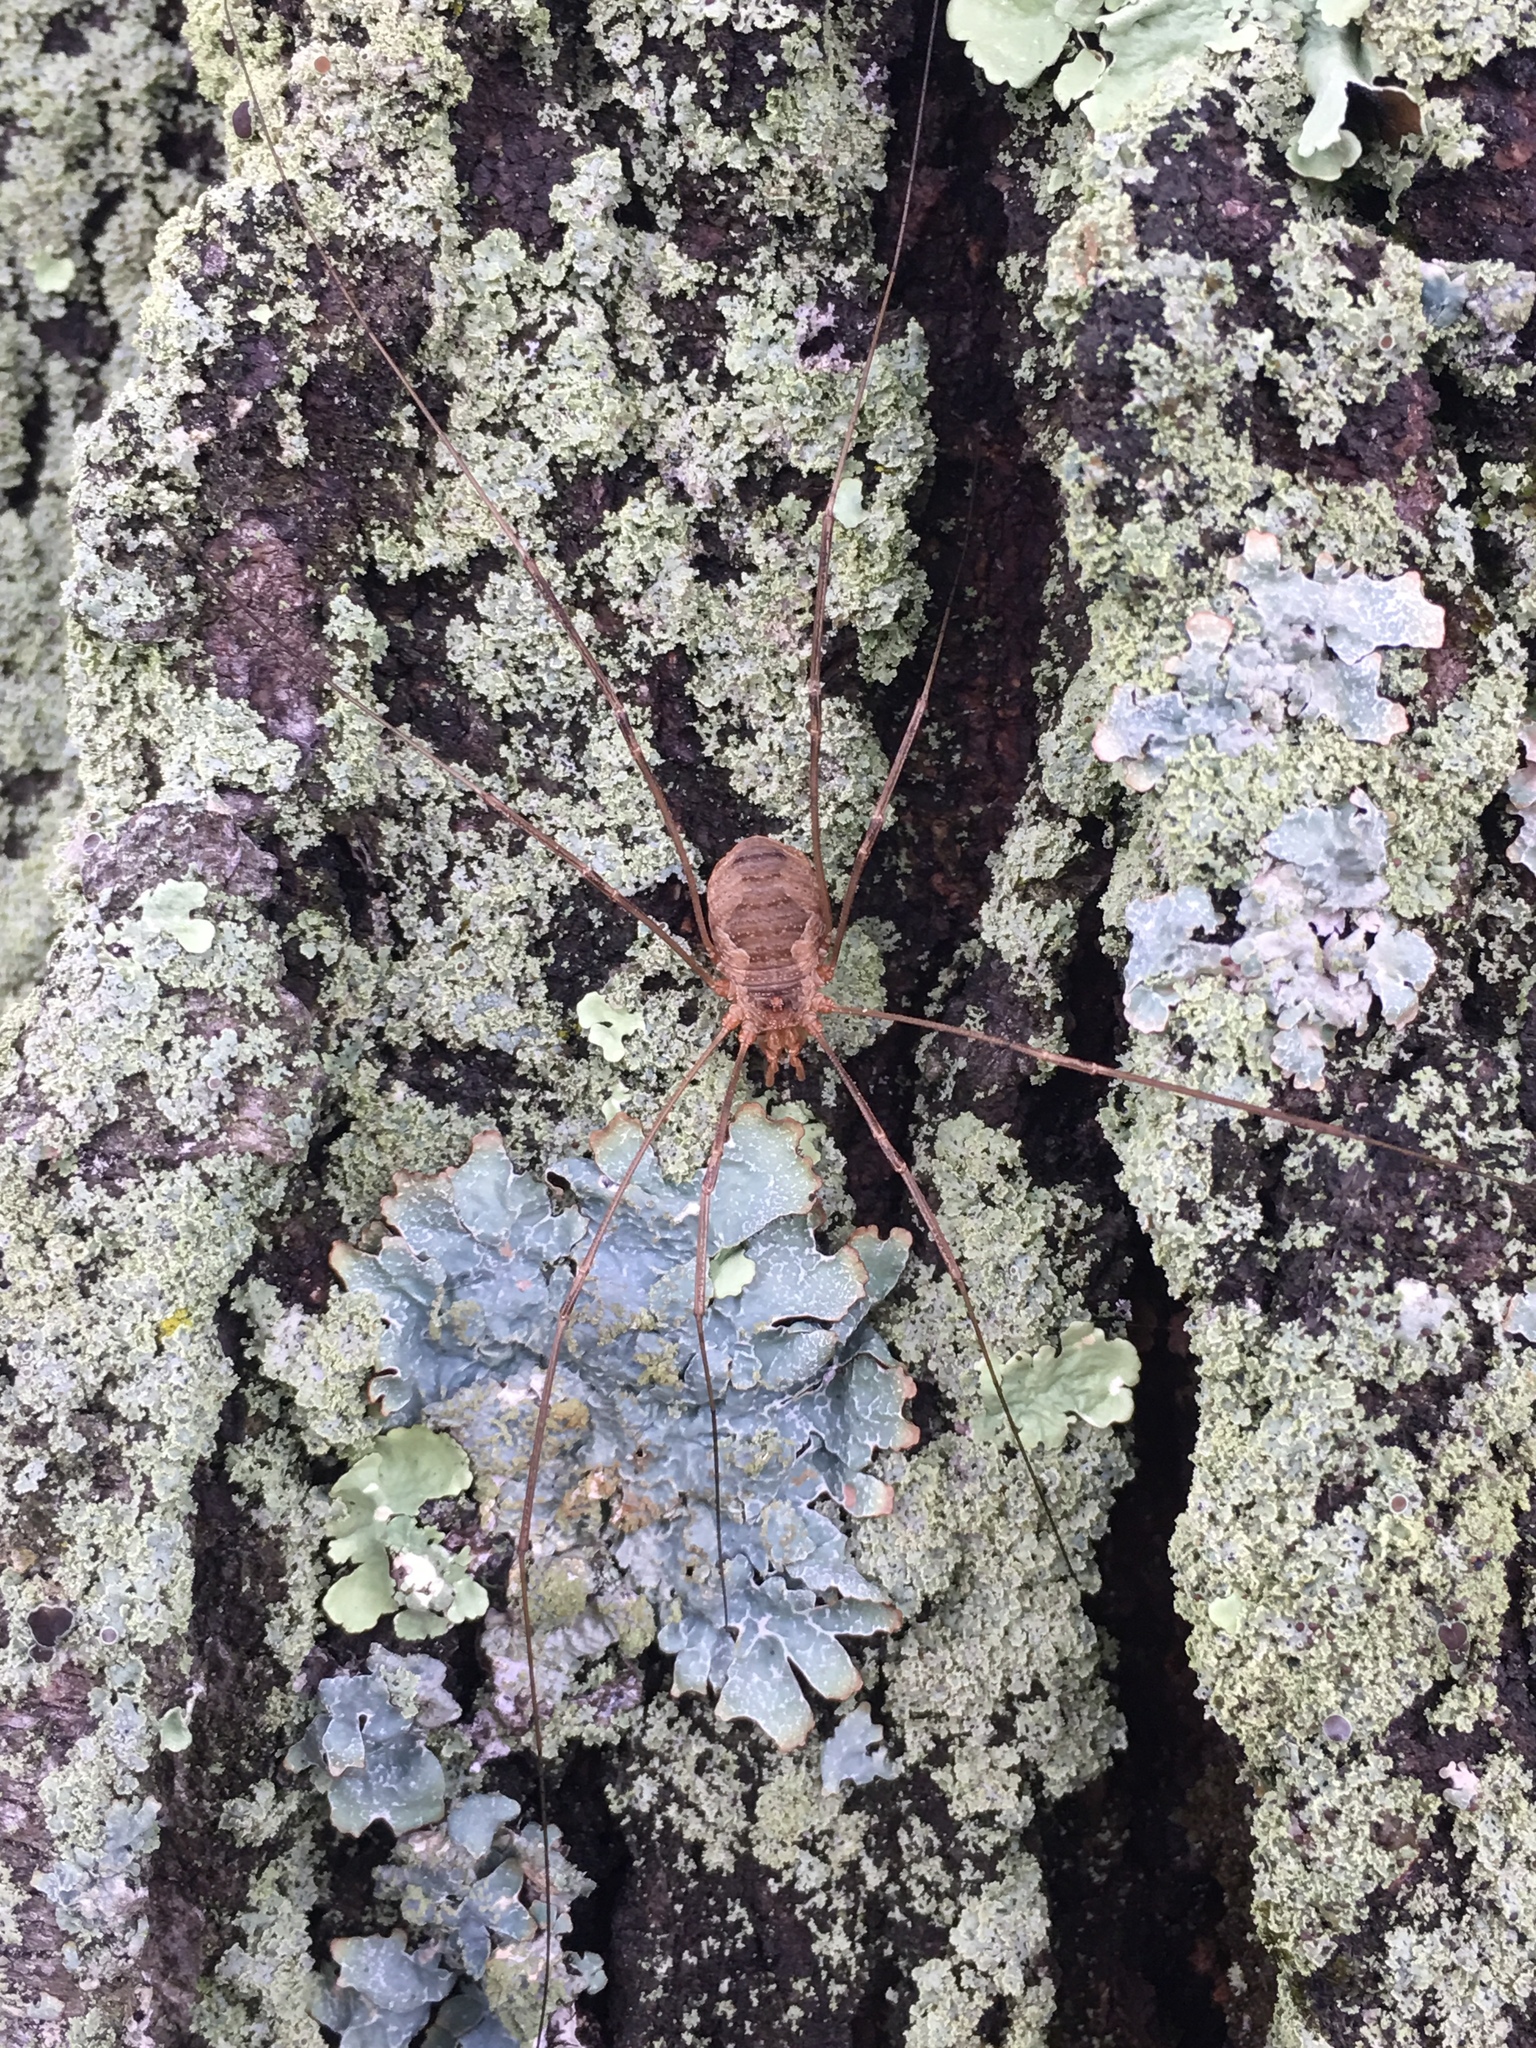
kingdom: Animalia
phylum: Arthropoda
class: Arachnida
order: Opiliones
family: Phalangiidae
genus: Phalangium
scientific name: Phalangium opilio
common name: Daddy longleg
